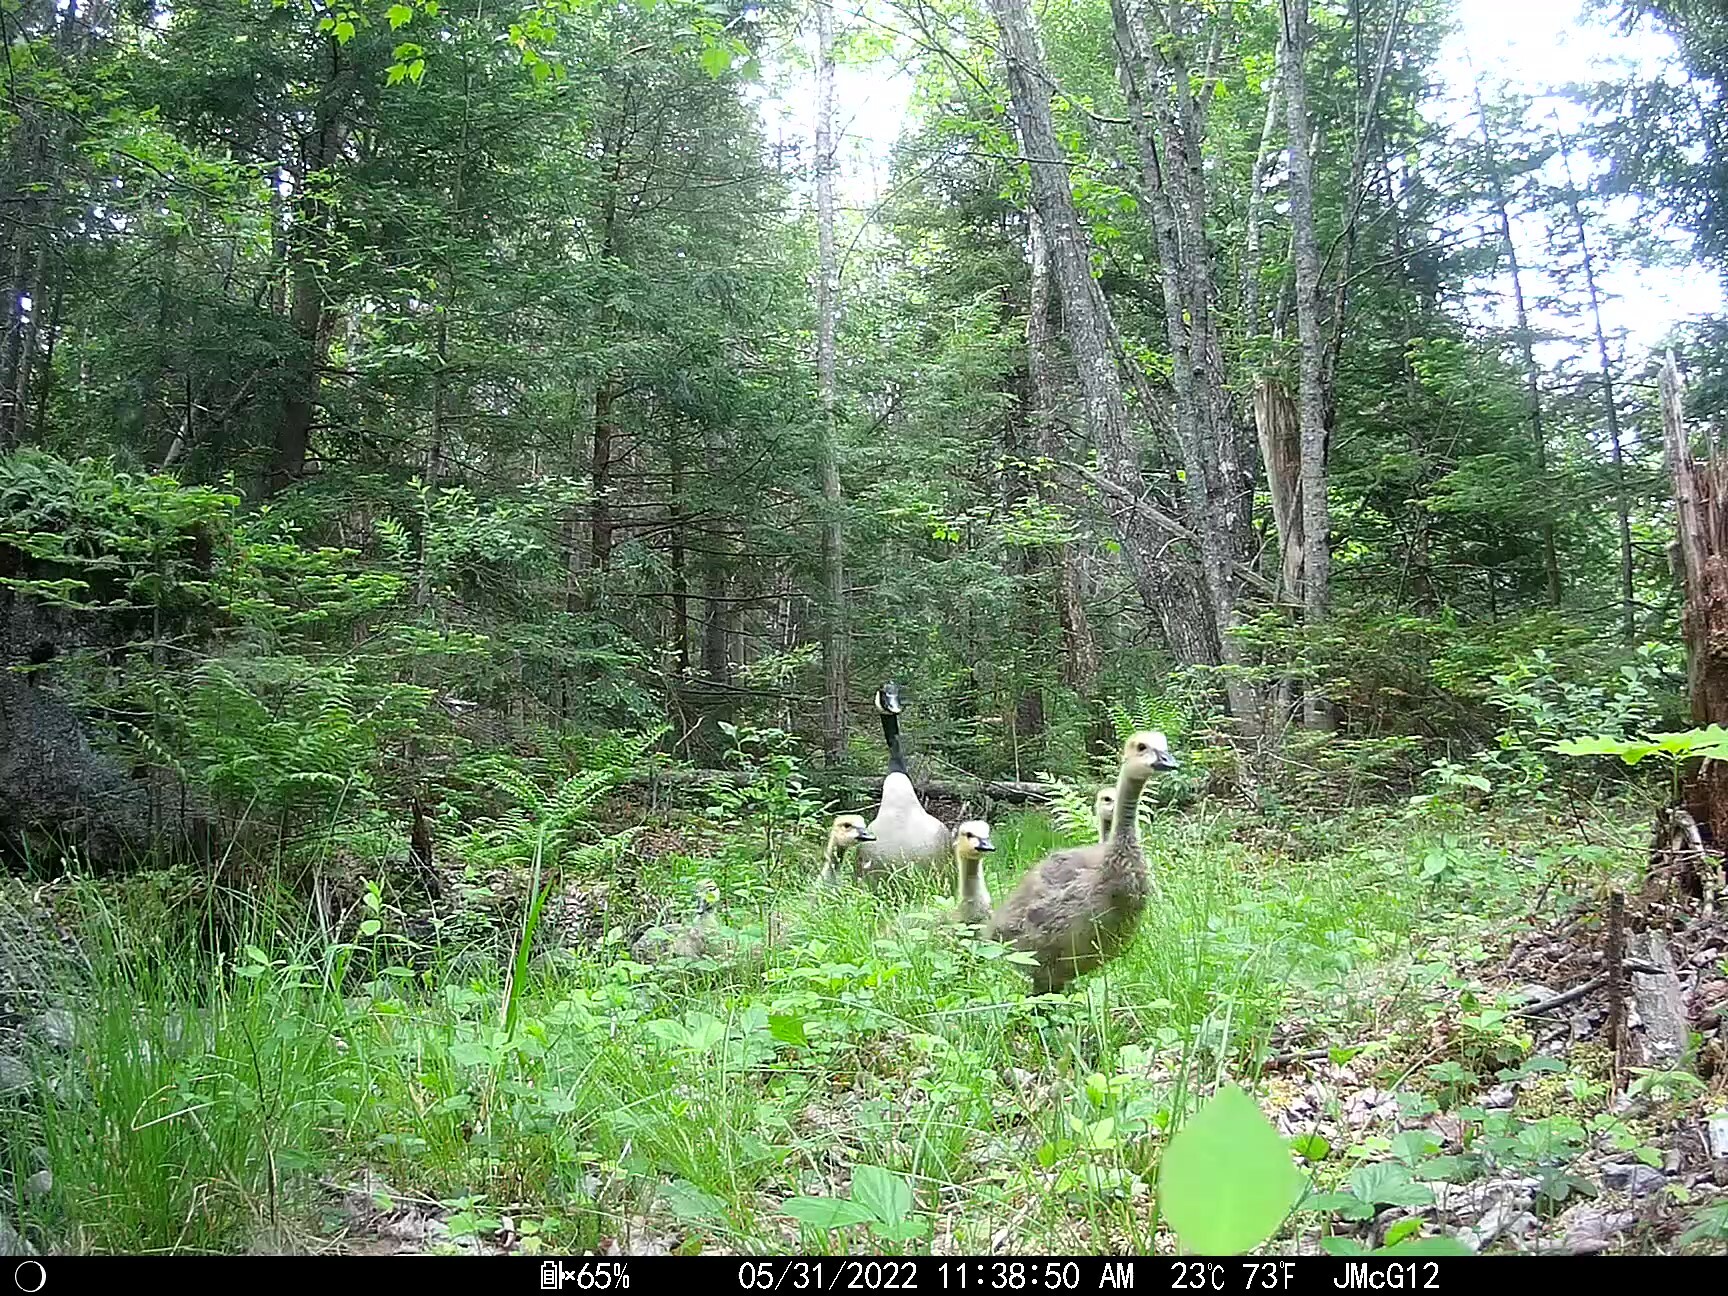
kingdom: Animalia
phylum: Chordata
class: Aves
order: Anseriformes
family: Anatidae
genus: Branta
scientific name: Branta canadensis
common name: Canada goose
